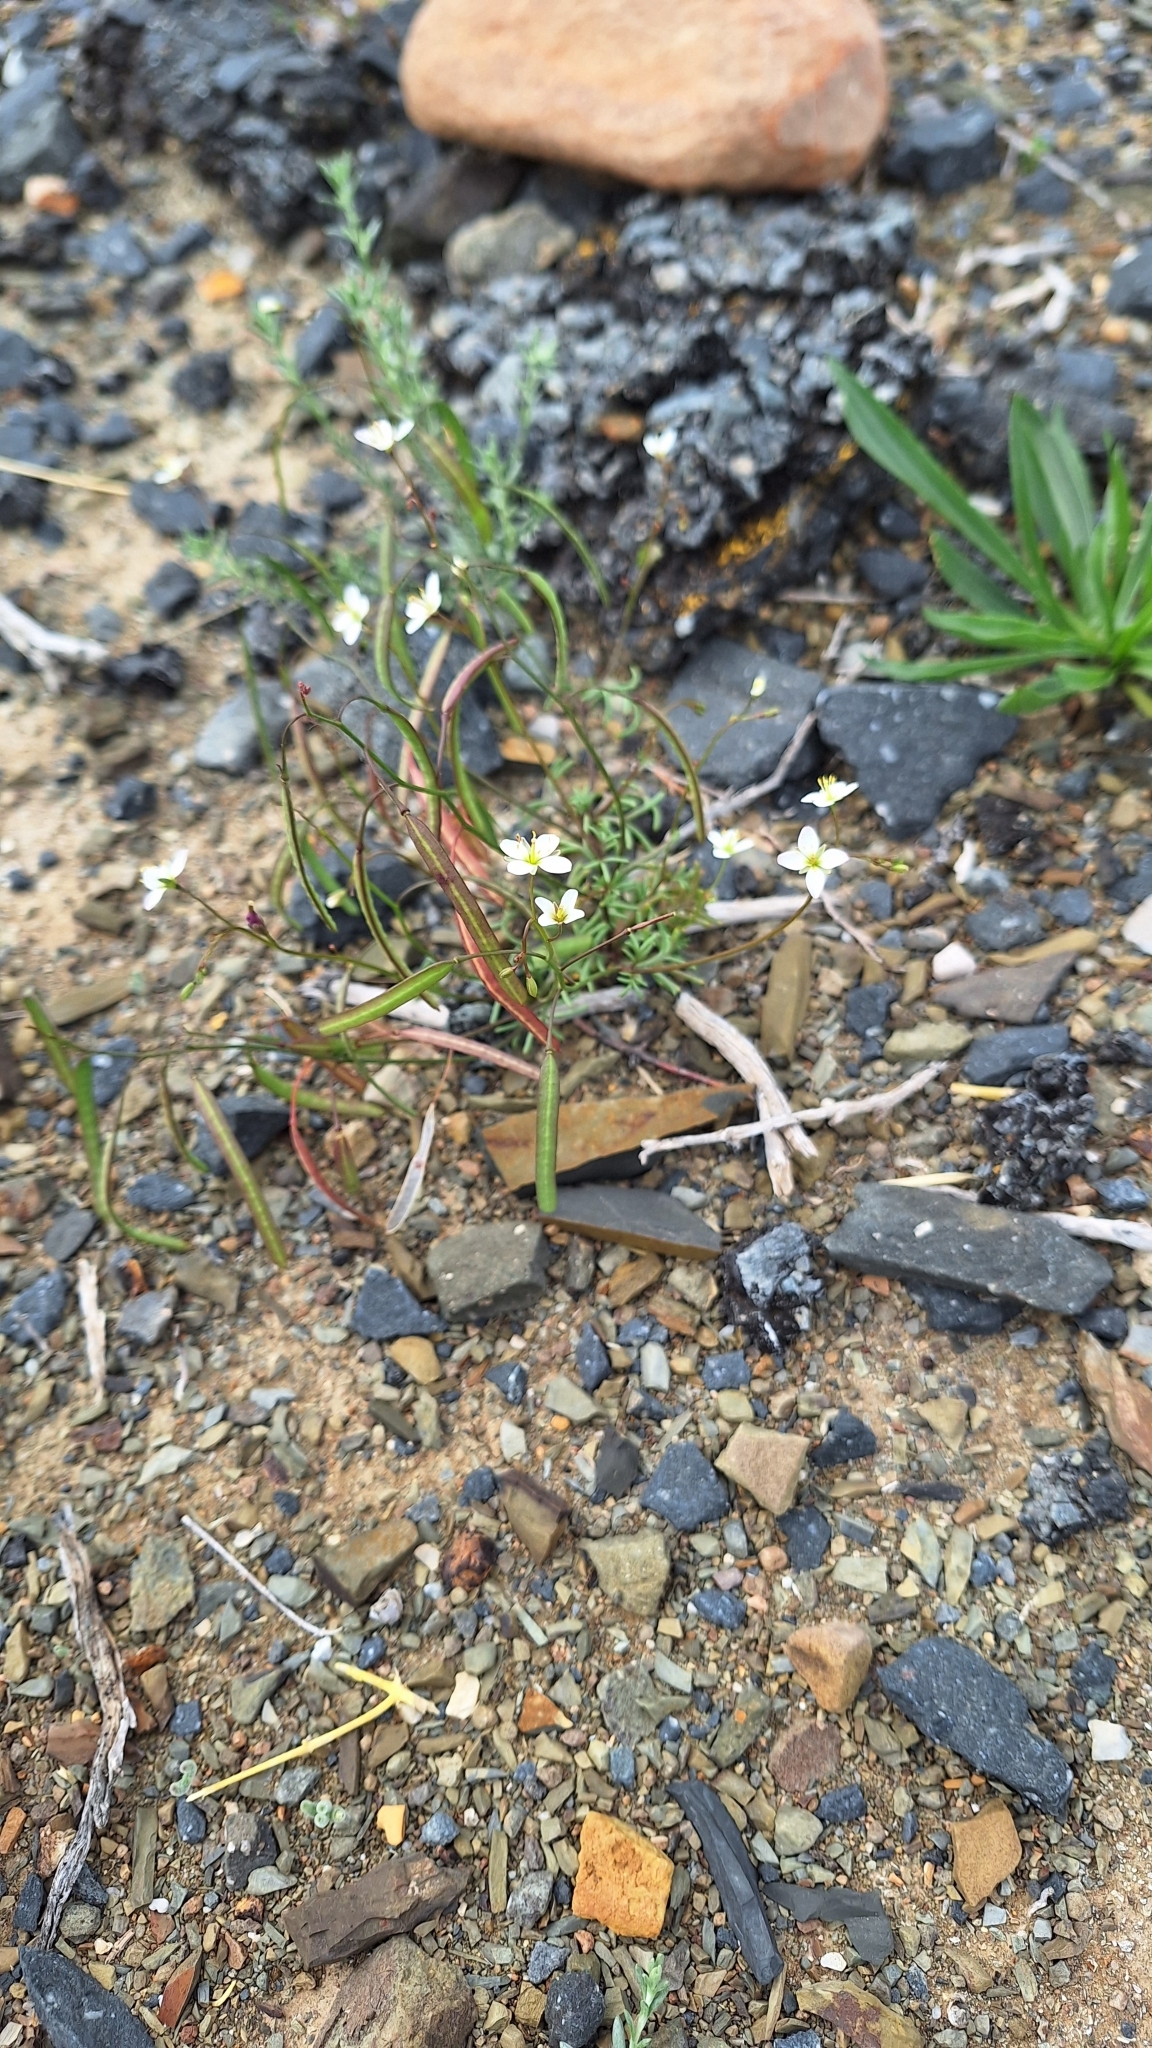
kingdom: Plantae
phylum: Tracheophyta
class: Magnoliopsida
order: Brassicales
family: Brassicaceae
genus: Heliophila
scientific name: Heliophila crithmifolia
